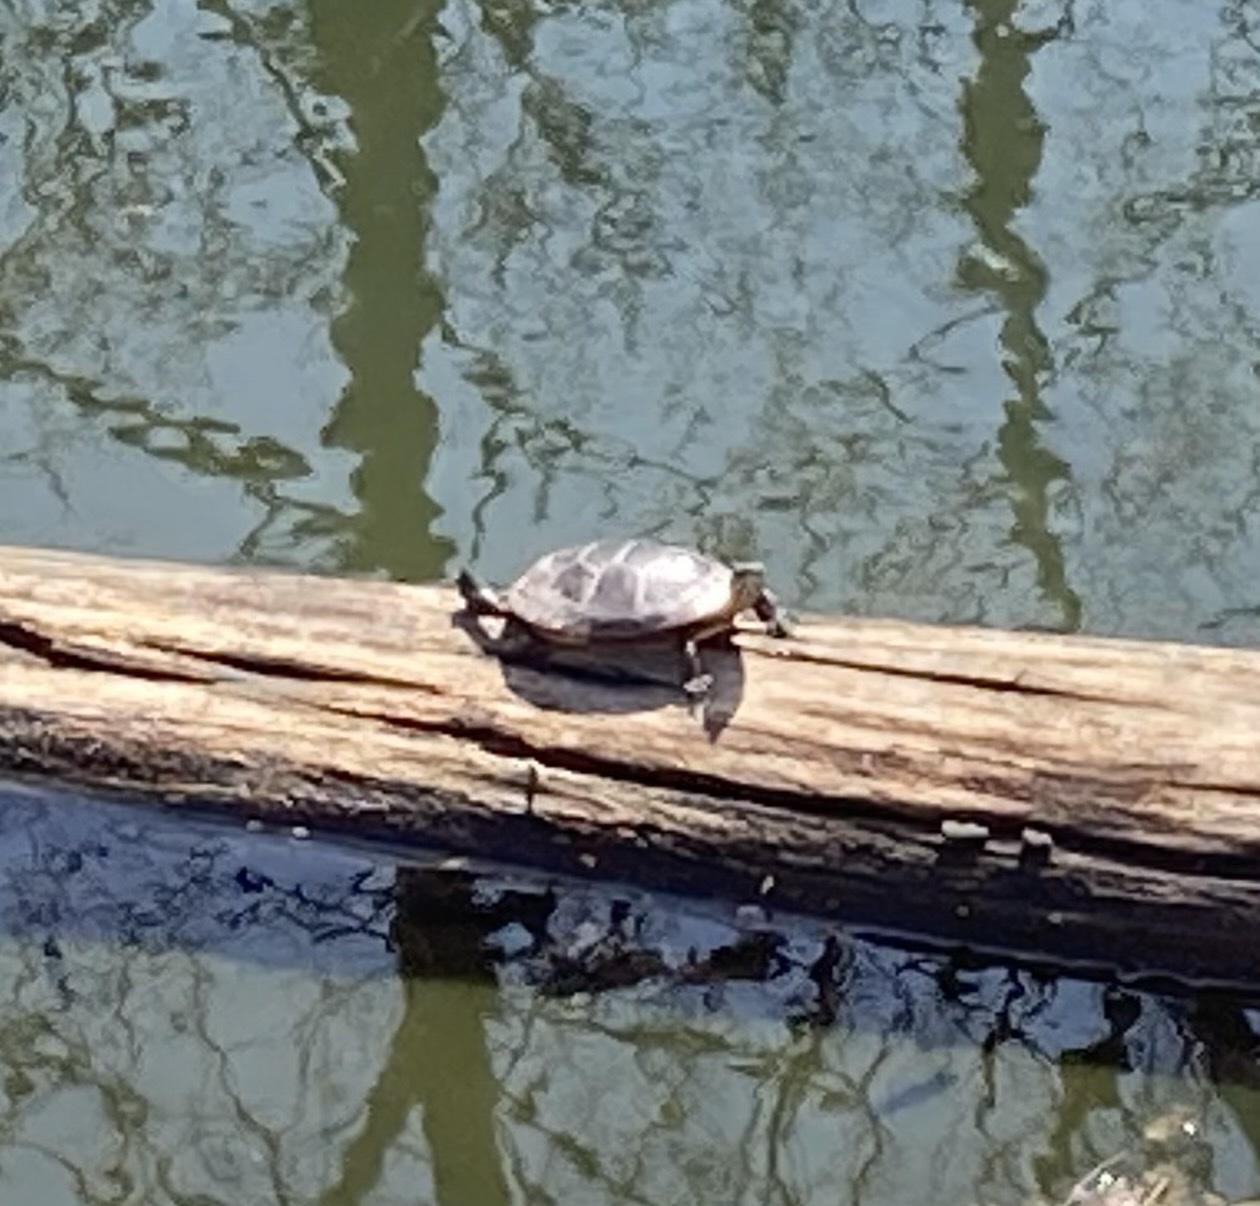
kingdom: Animalia
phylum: Chordata
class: Testudines
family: Emydidae
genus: Chrysemys
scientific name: Chrysemys picta
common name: Painted turtle
